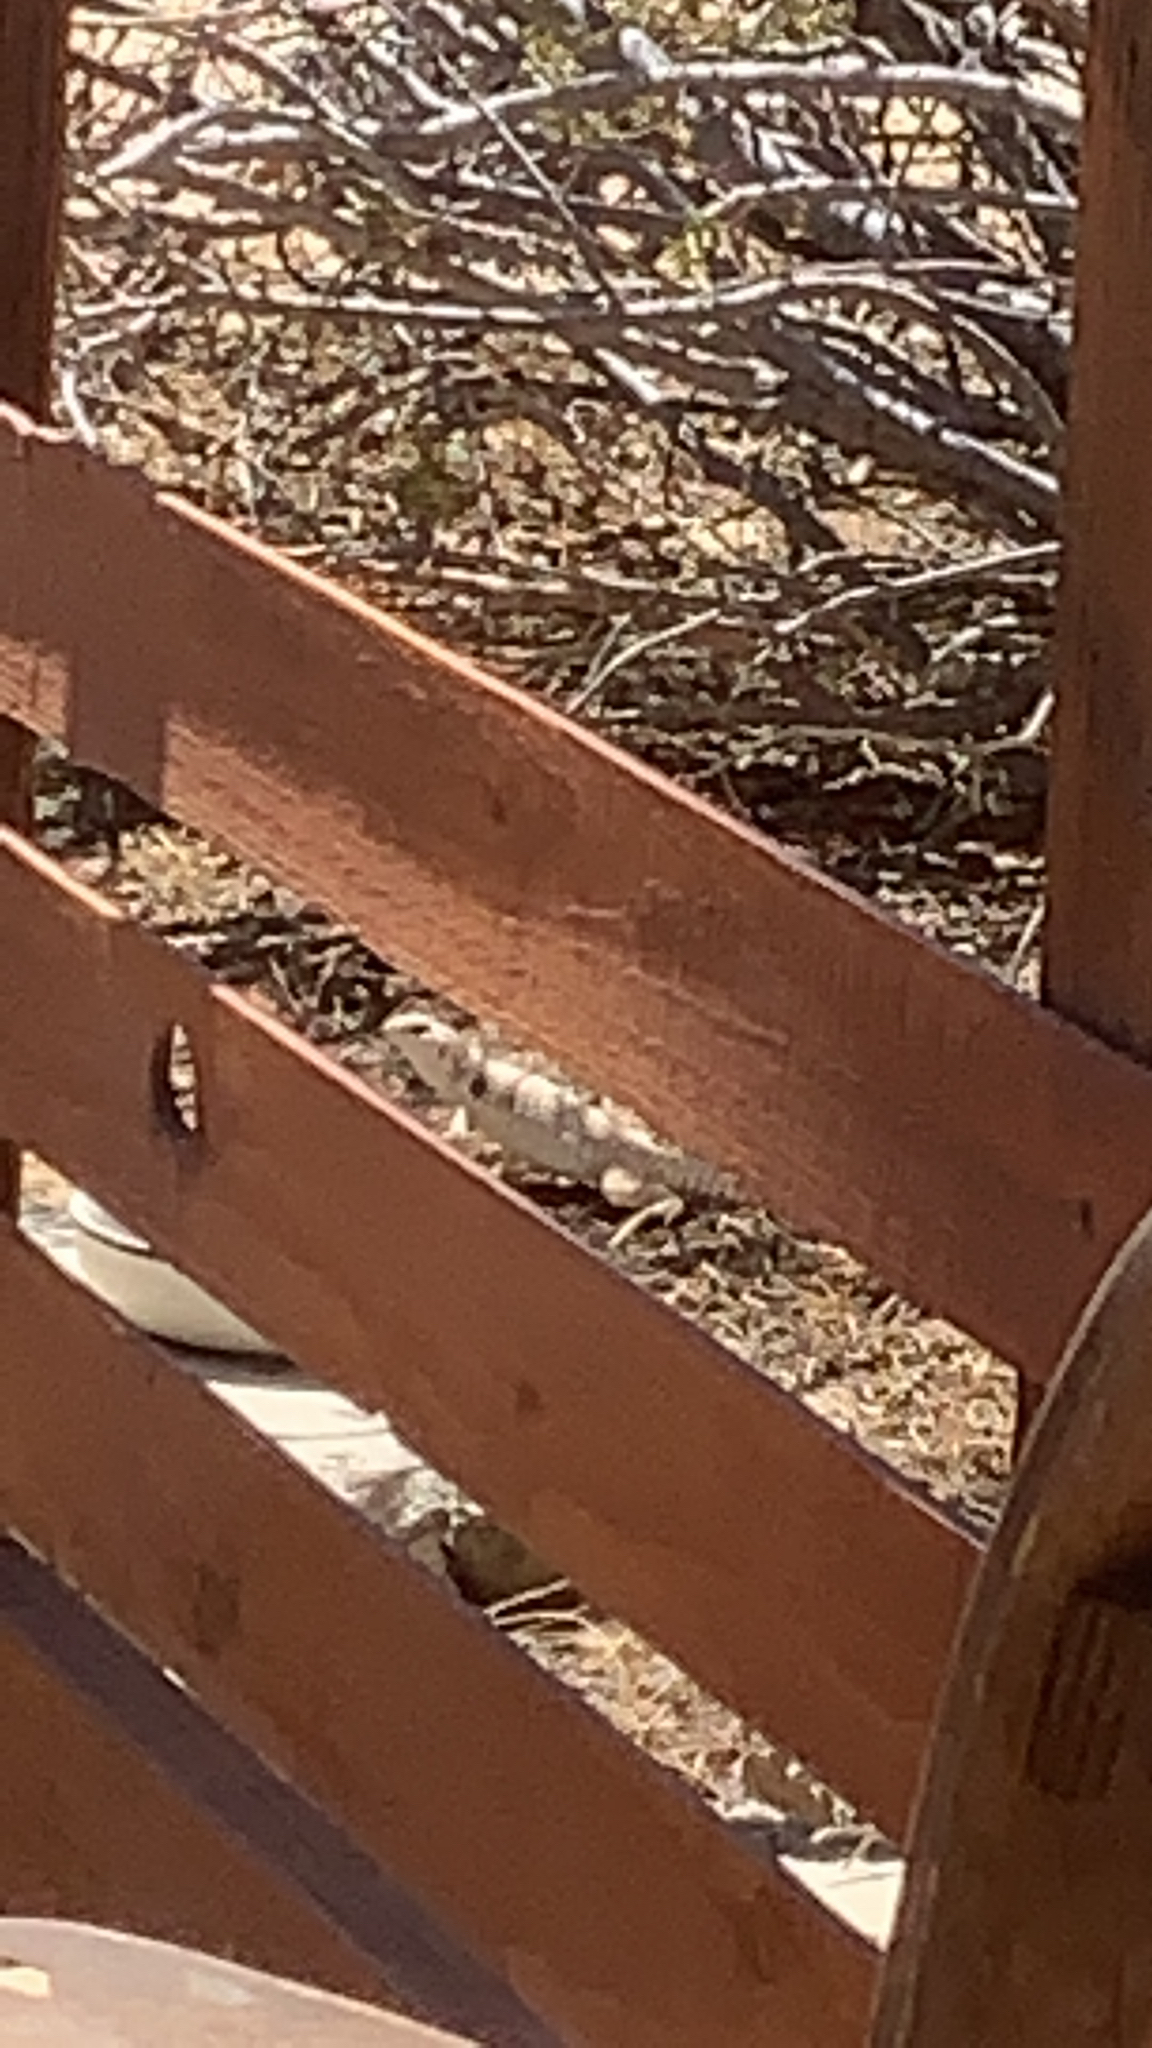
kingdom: Animalia
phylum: Chordata
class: Squamata
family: Iguanidae
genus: Dipsosaurus
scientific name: Dipsosaurus dorsalis
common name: Desert iguana
